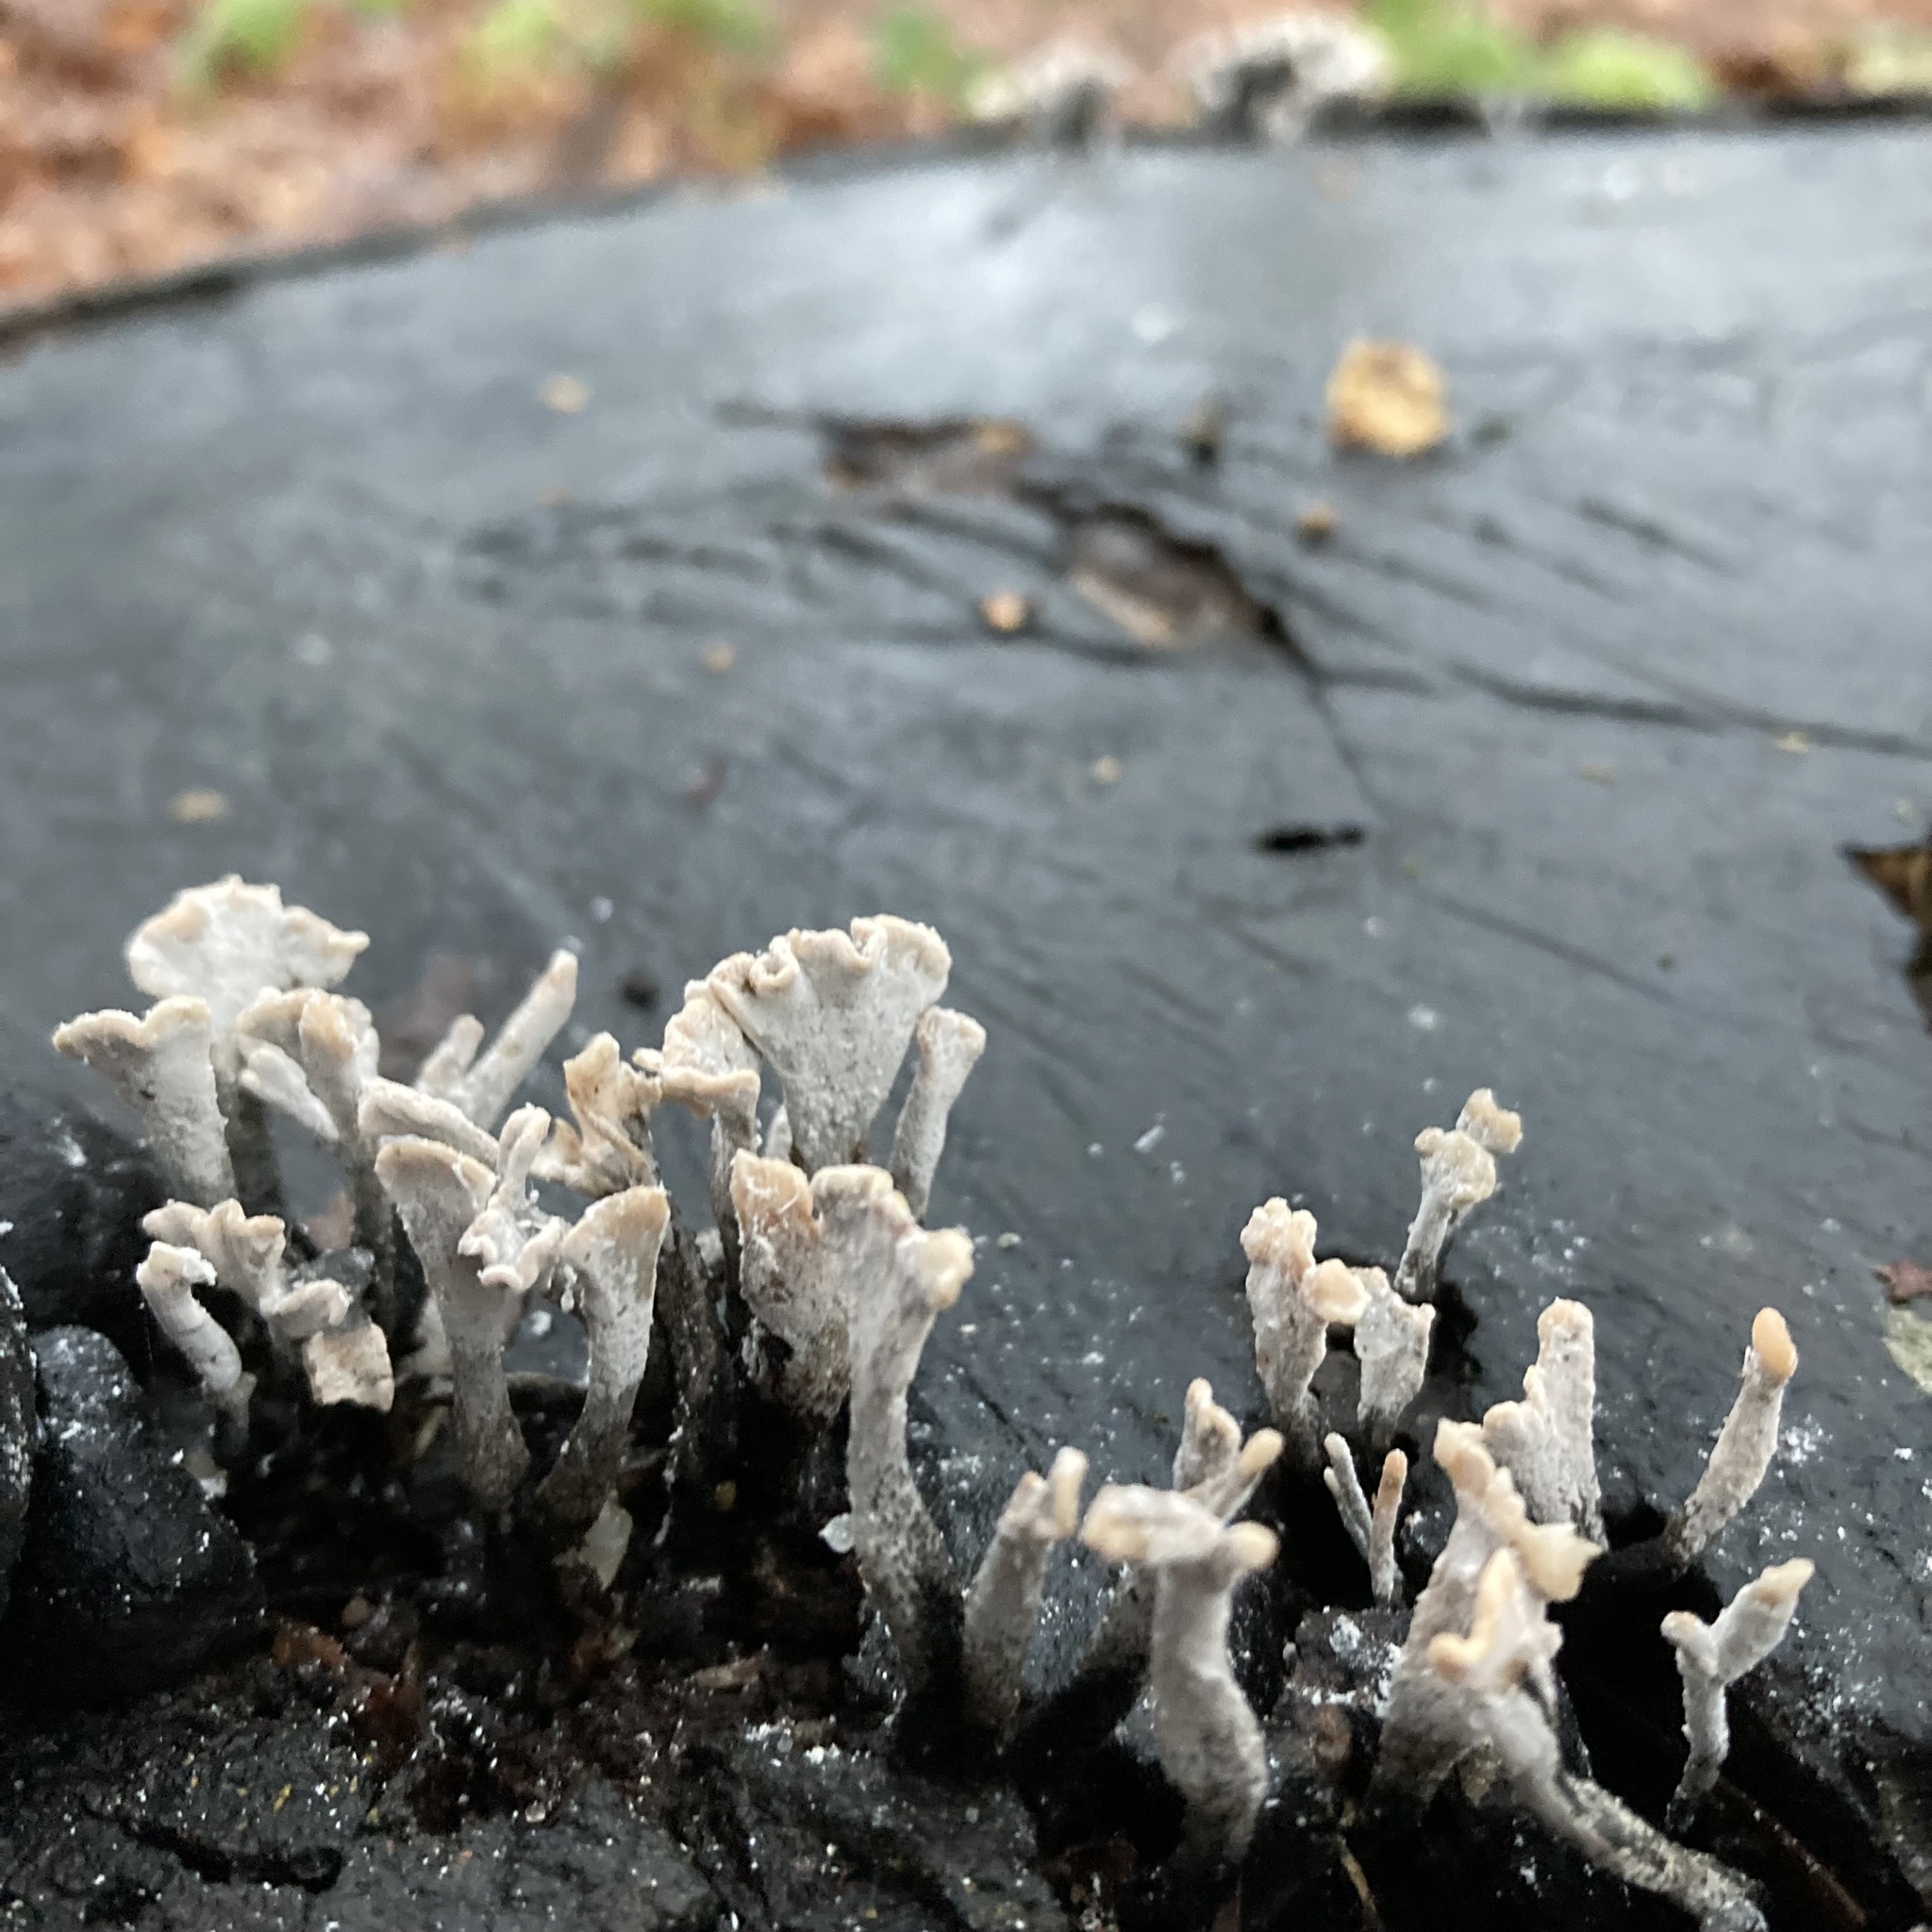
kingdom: Fungi
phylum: Ascomycota
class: Sordariomycetes
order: Xylariales
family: Xylariaceae
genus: Xylaria
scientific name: Xylaria hypoxylon
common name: Candle-snuff fungus
